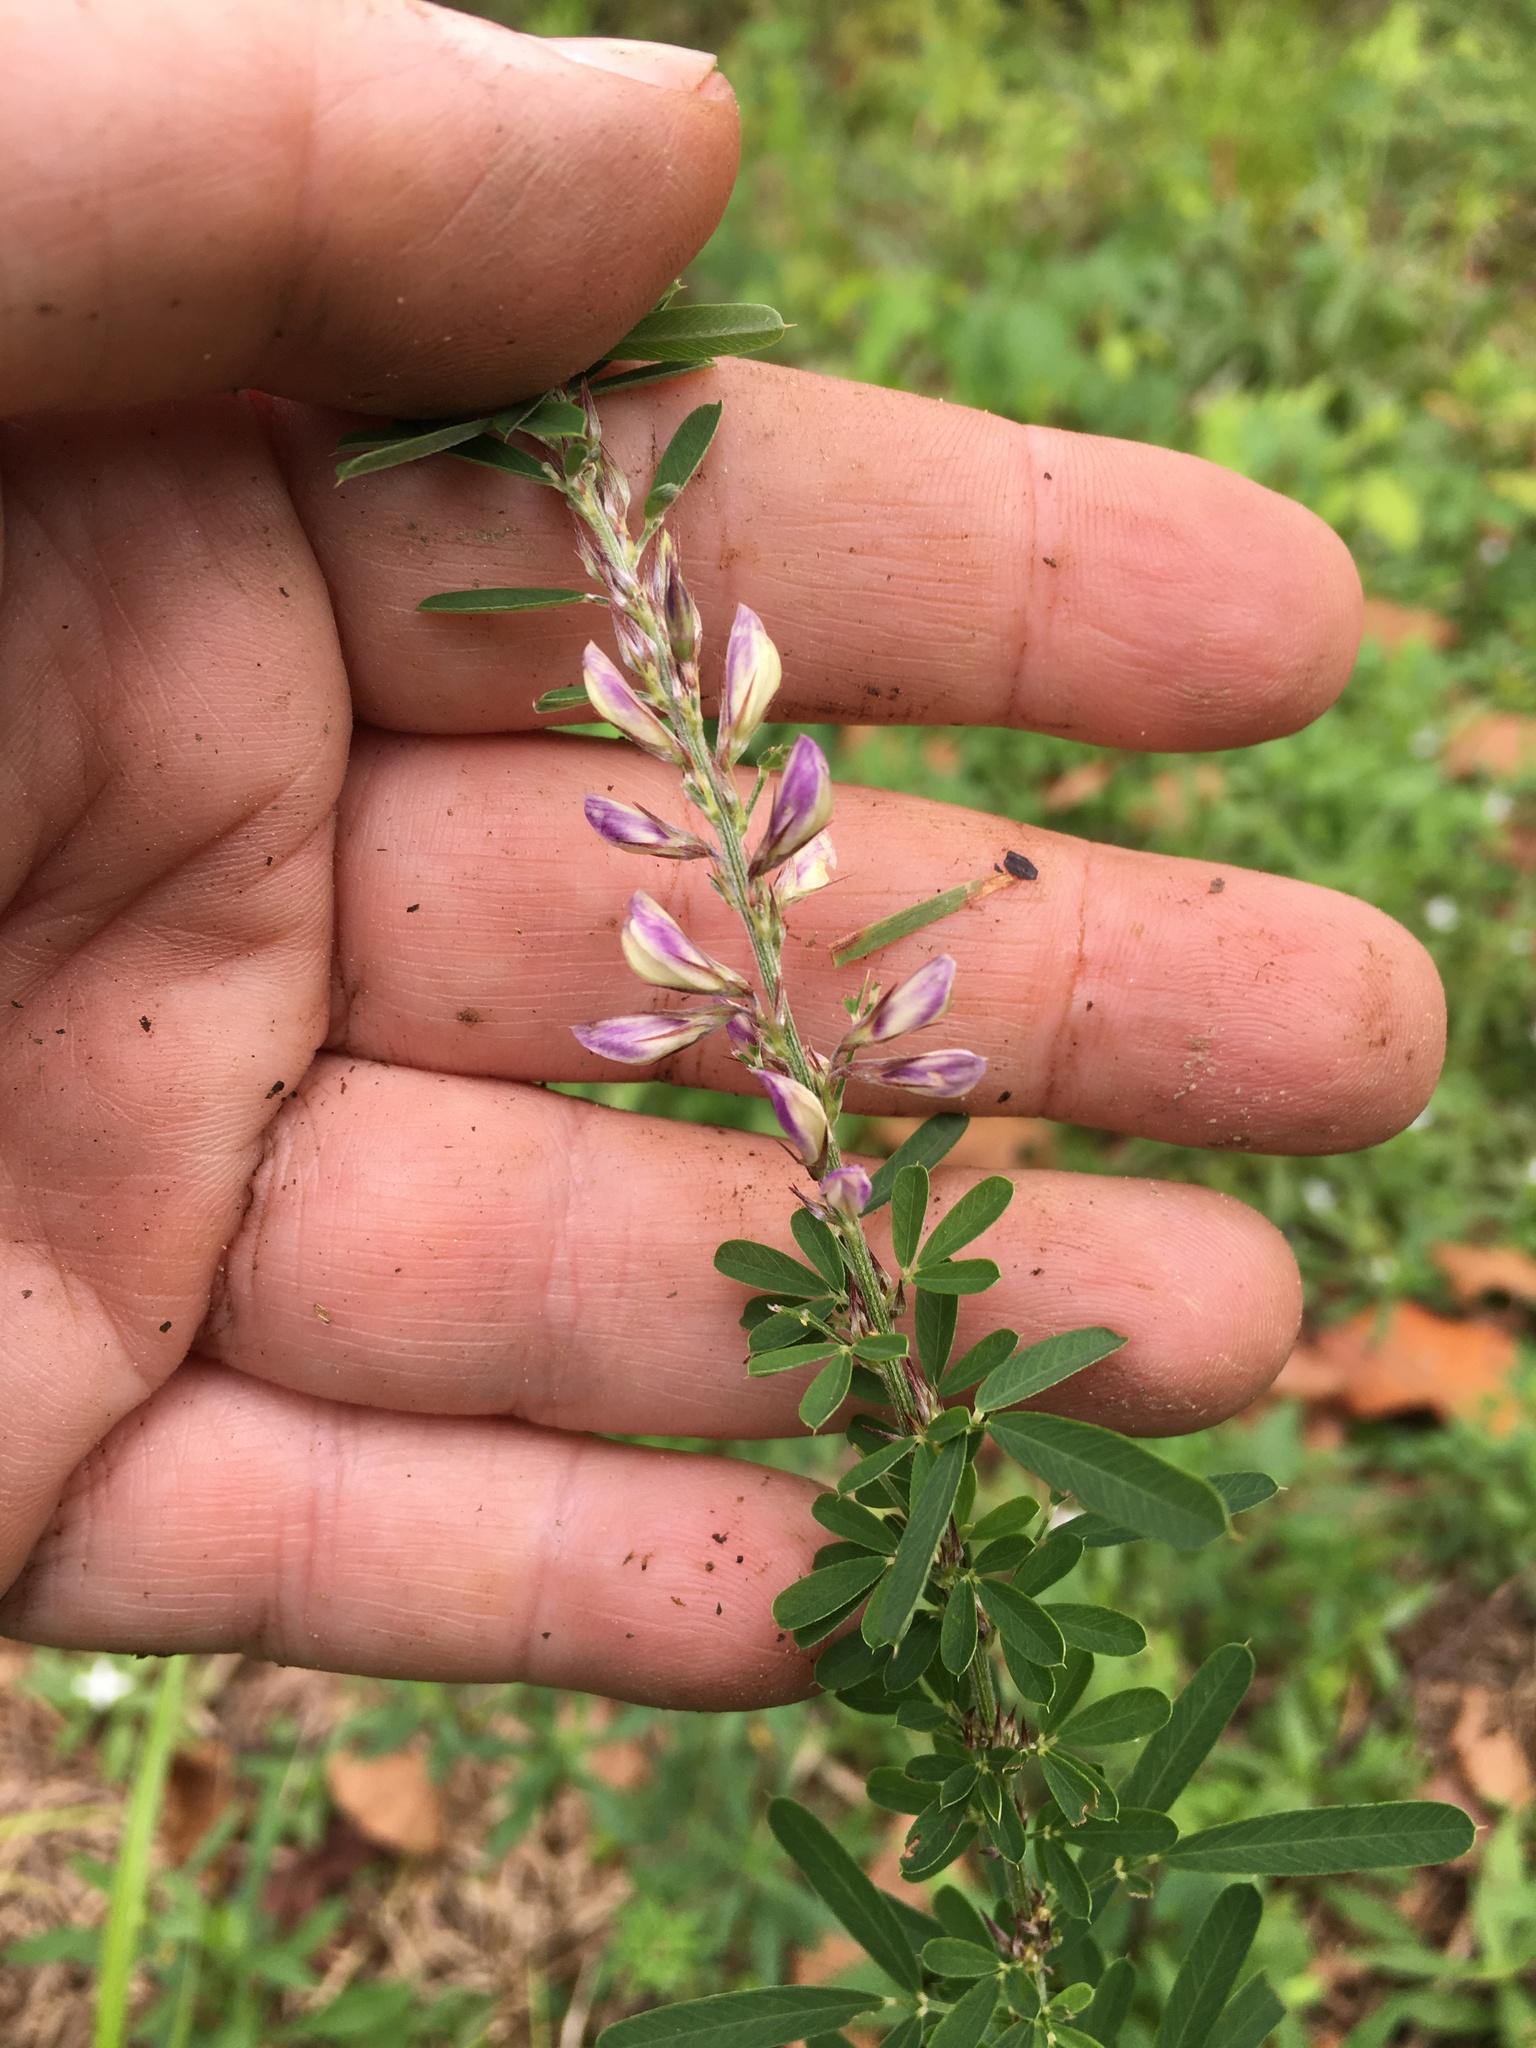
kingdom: Plantae
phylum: Tracheophyta
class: Magnoliopsida
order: Fabales
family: Fabaceae
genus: Lespedeza
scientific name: Lespedeza cuneata
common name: Chinese bush-clover
